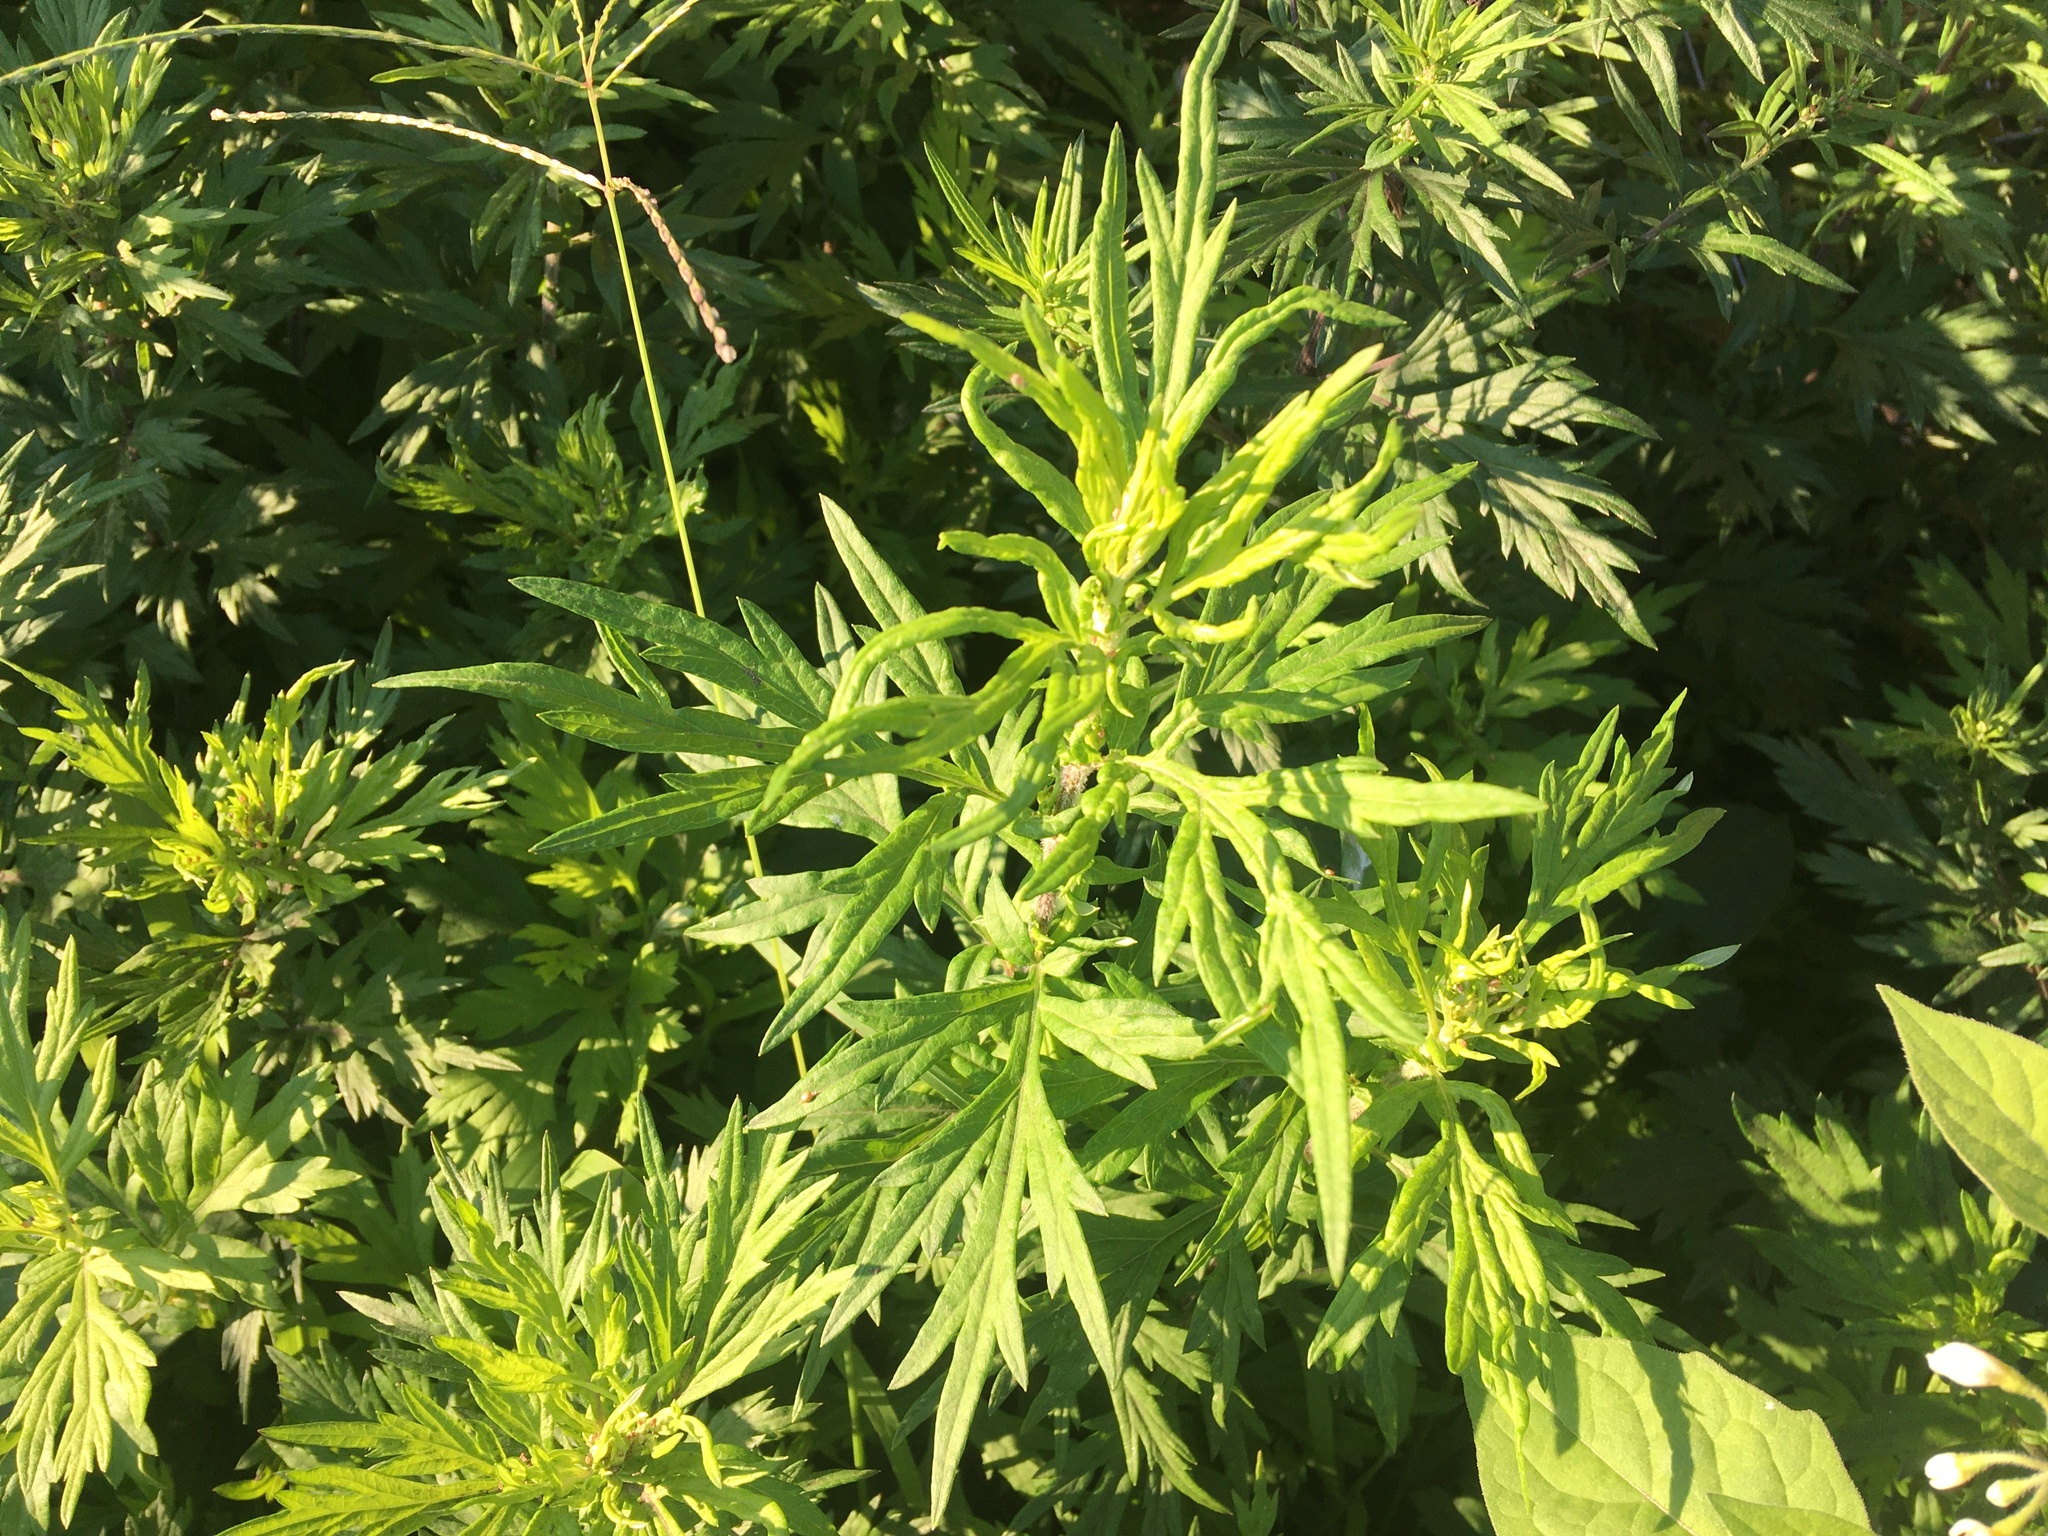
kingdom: Plantae
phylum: Tracheophyta
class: Magnoliopsida
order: Asterales
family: Asteraceae
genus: Artemisia
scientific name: Artemisia vulgaris
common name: Mugwort
